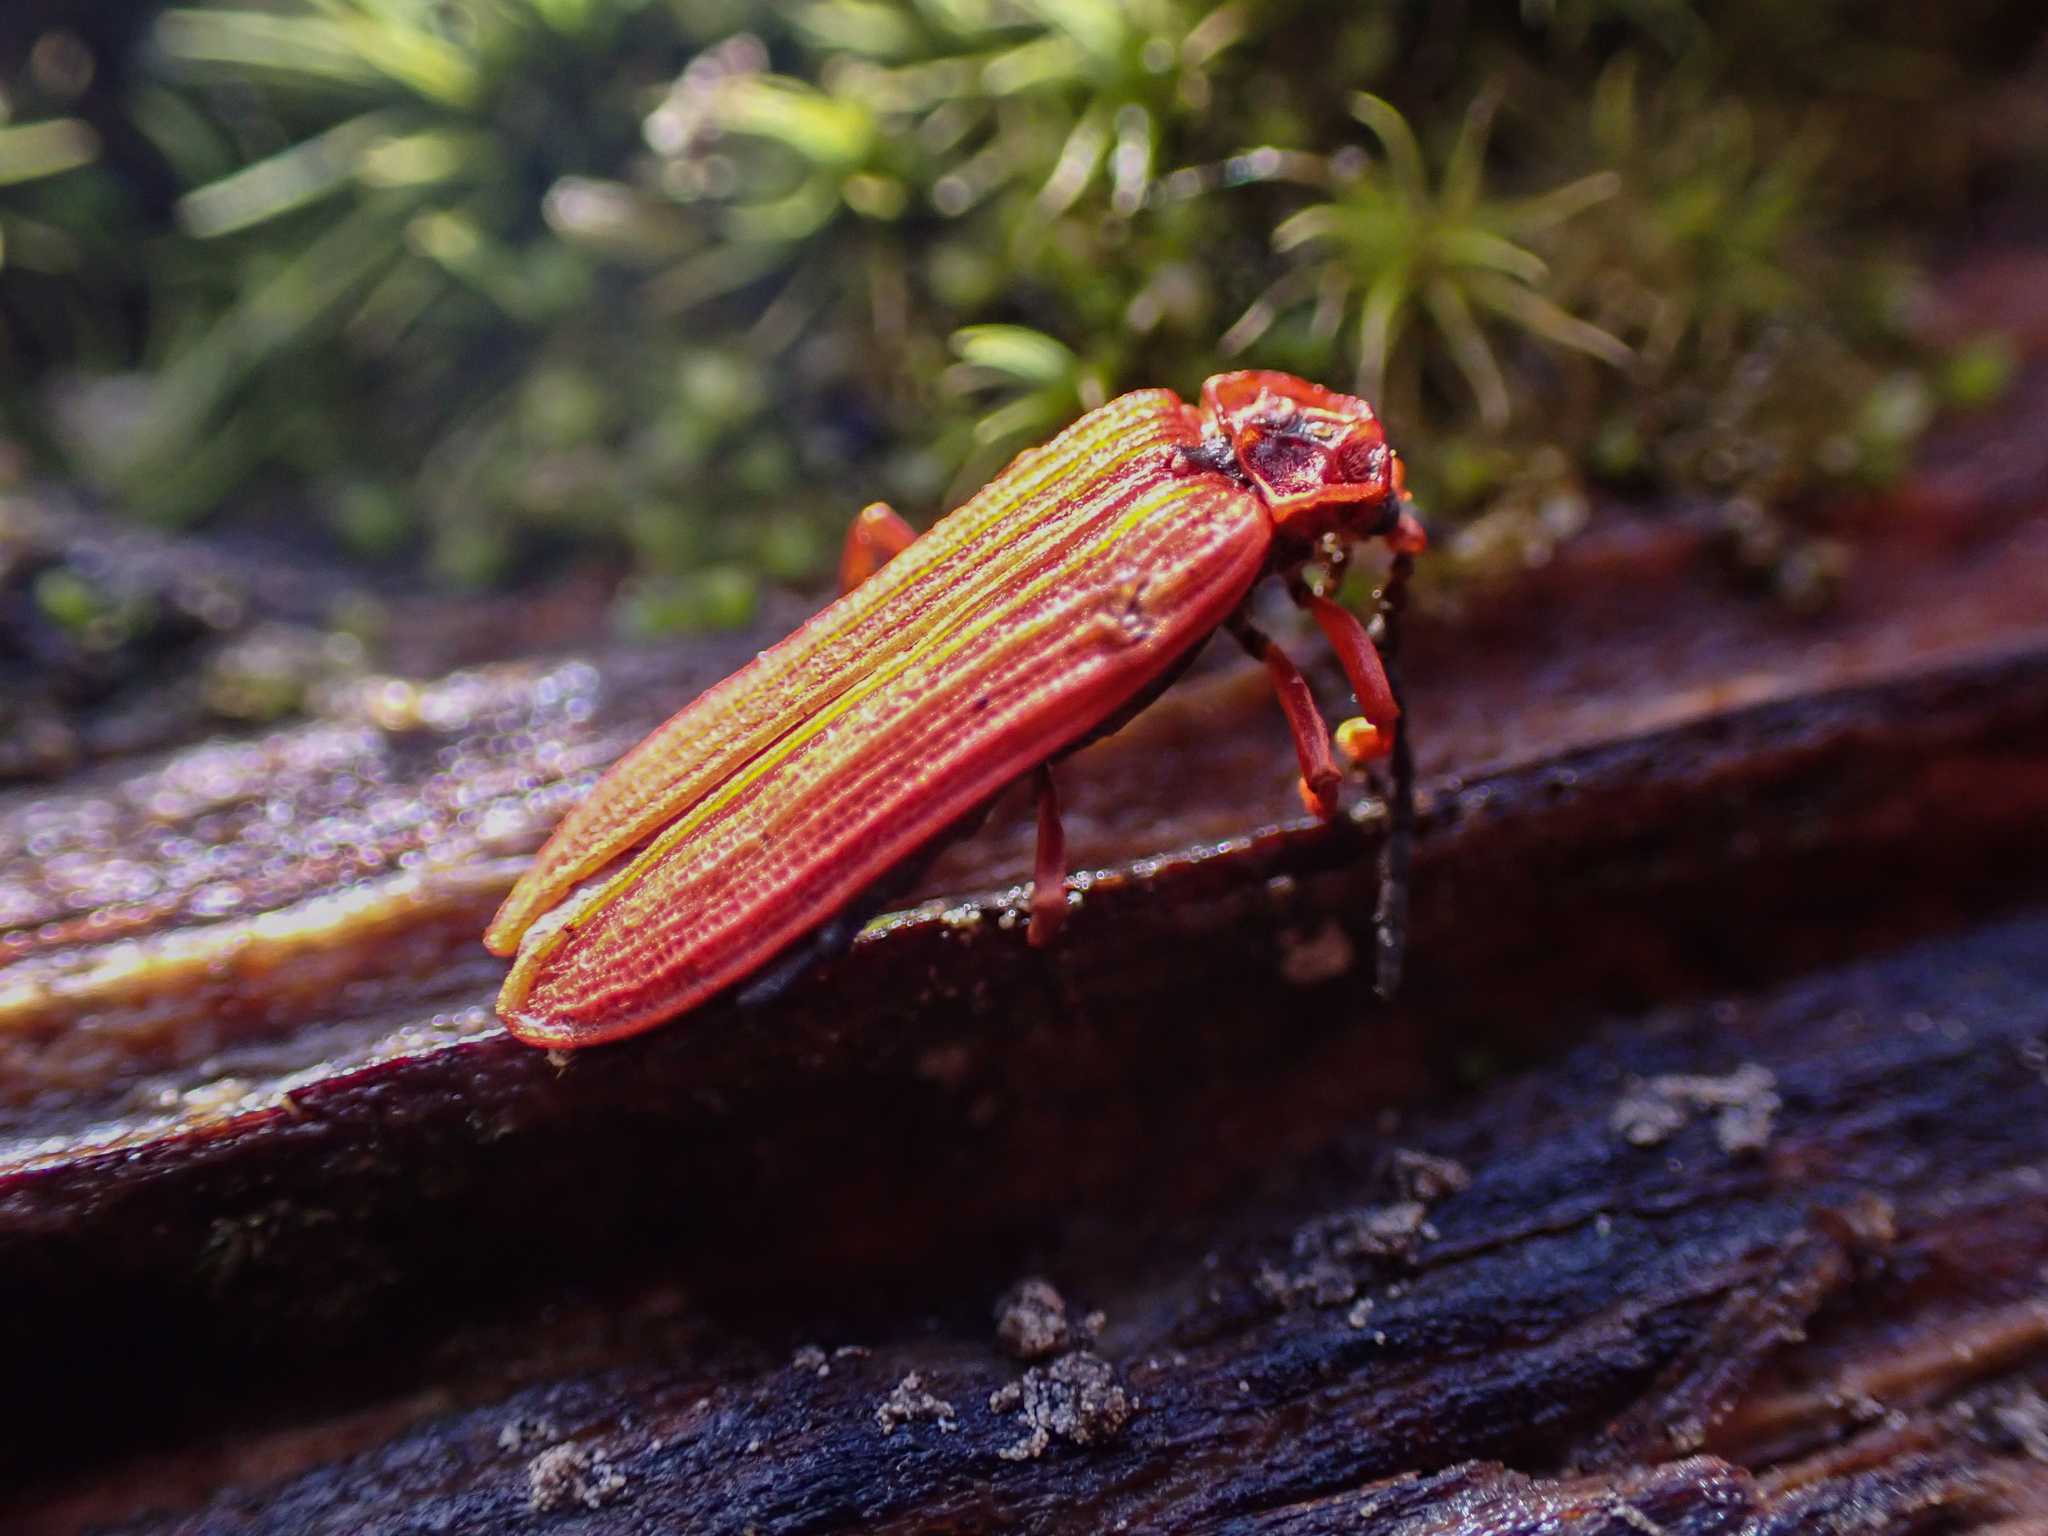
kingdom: Animalia
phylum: Arthropoda
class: Insecta
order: Coleoptera
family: Lycidae
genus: Dictyoptera
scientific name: Dictyoptera simplicipes
